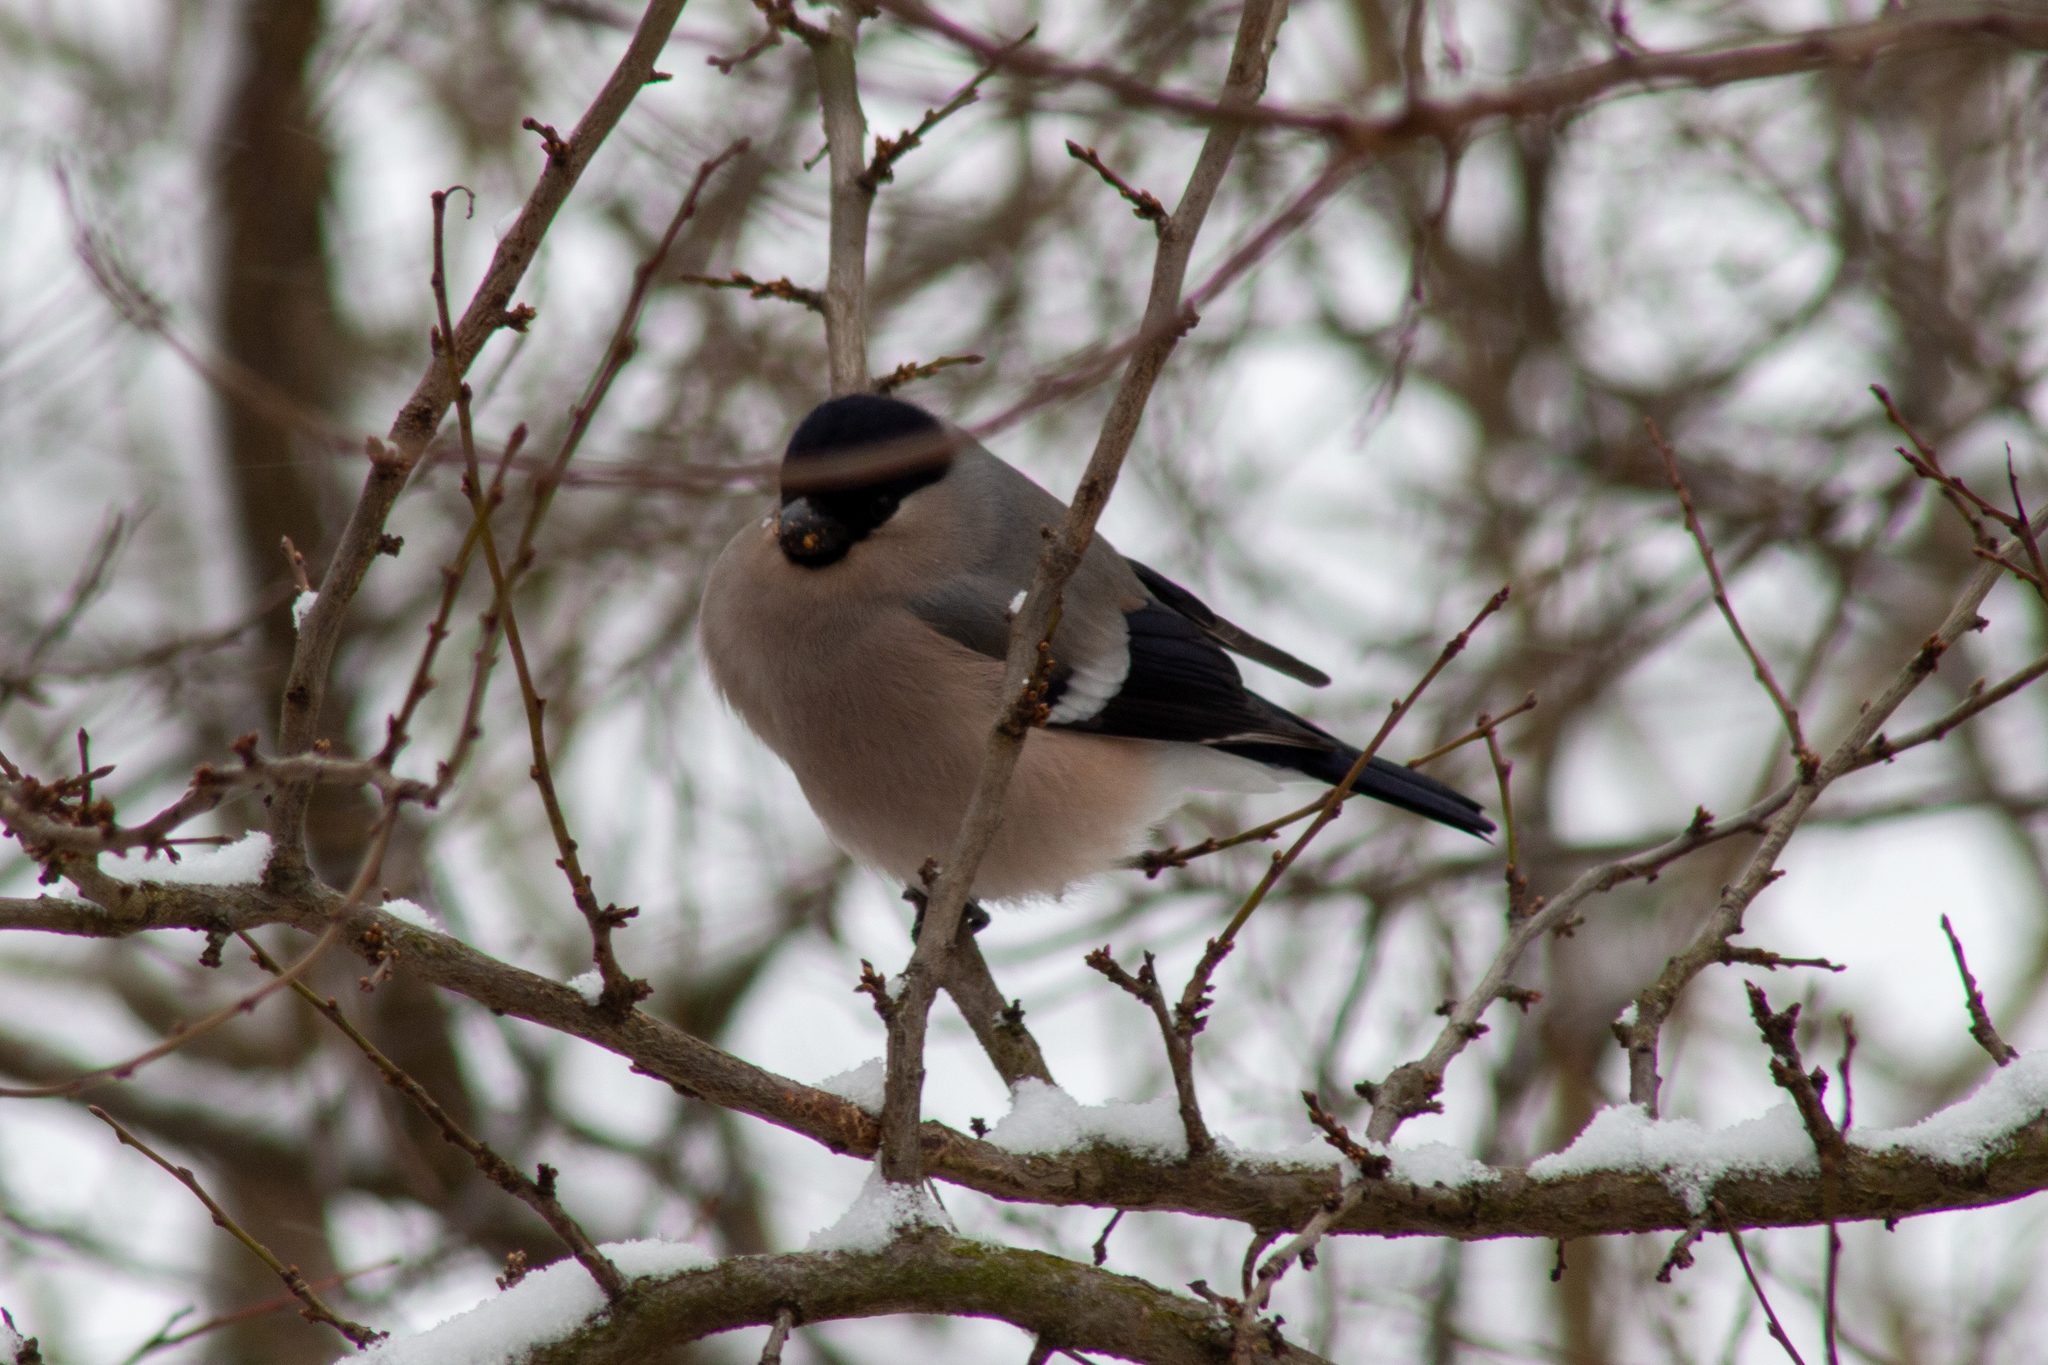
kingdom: Animalia
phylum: Chordata
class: Aves
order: Passeriformes
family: Fringillidae
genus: Pyrrhula
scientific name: Pyrrhula pyrrhula
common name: Eurasian bullfinch
